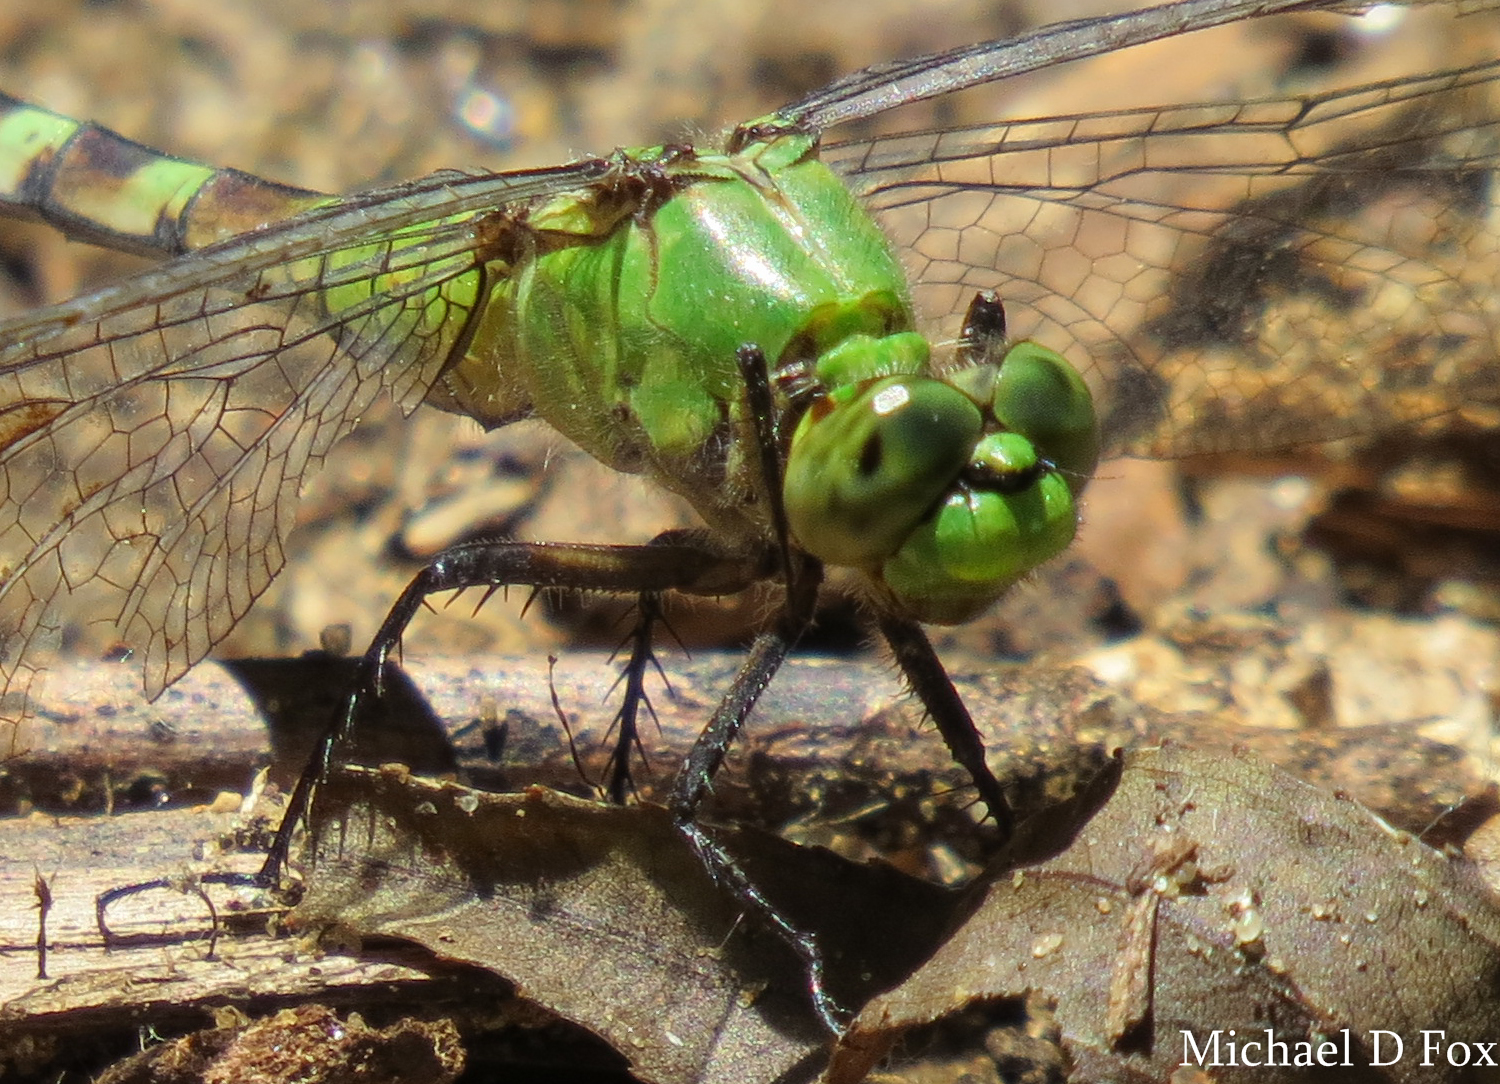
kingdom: Animalia
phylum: Arthropoda
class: Insecta
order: Odonata
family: Libellulidae
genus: Erythemis
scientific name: Erythemis simplicicollis
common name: Eastern pondhawk
